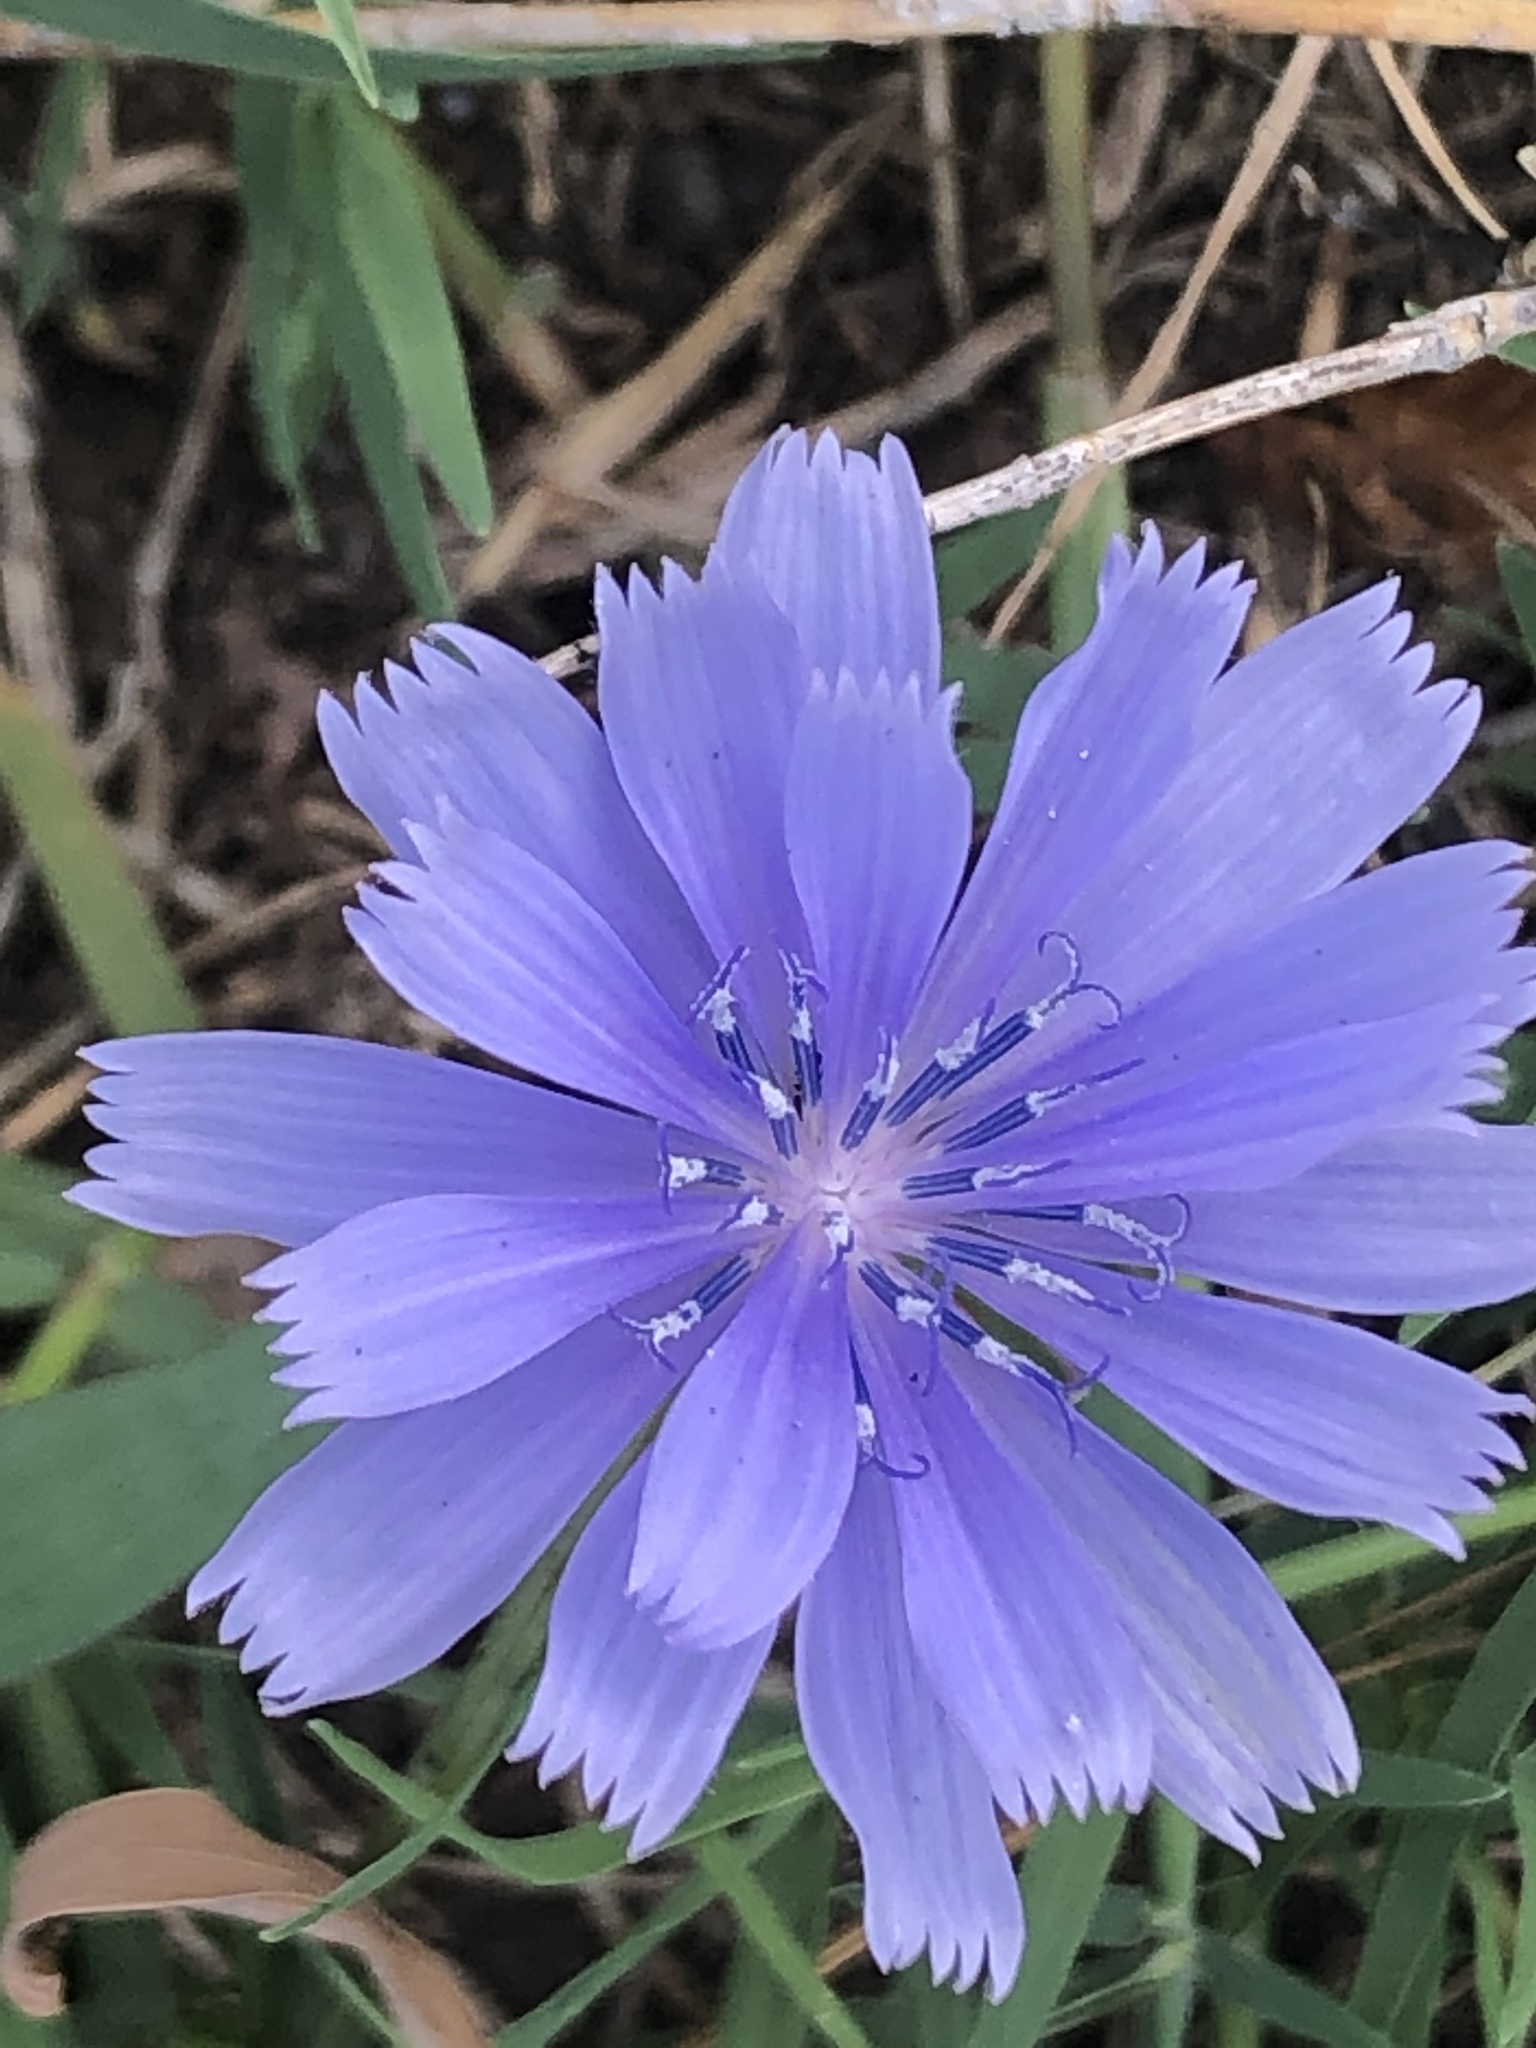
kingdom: Plantae
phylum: Tracheophyta
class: Magnoliopsida
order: Asterales
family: Asteraceae
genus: Cichorium
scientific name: Cichorium intybus
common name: Chicory
